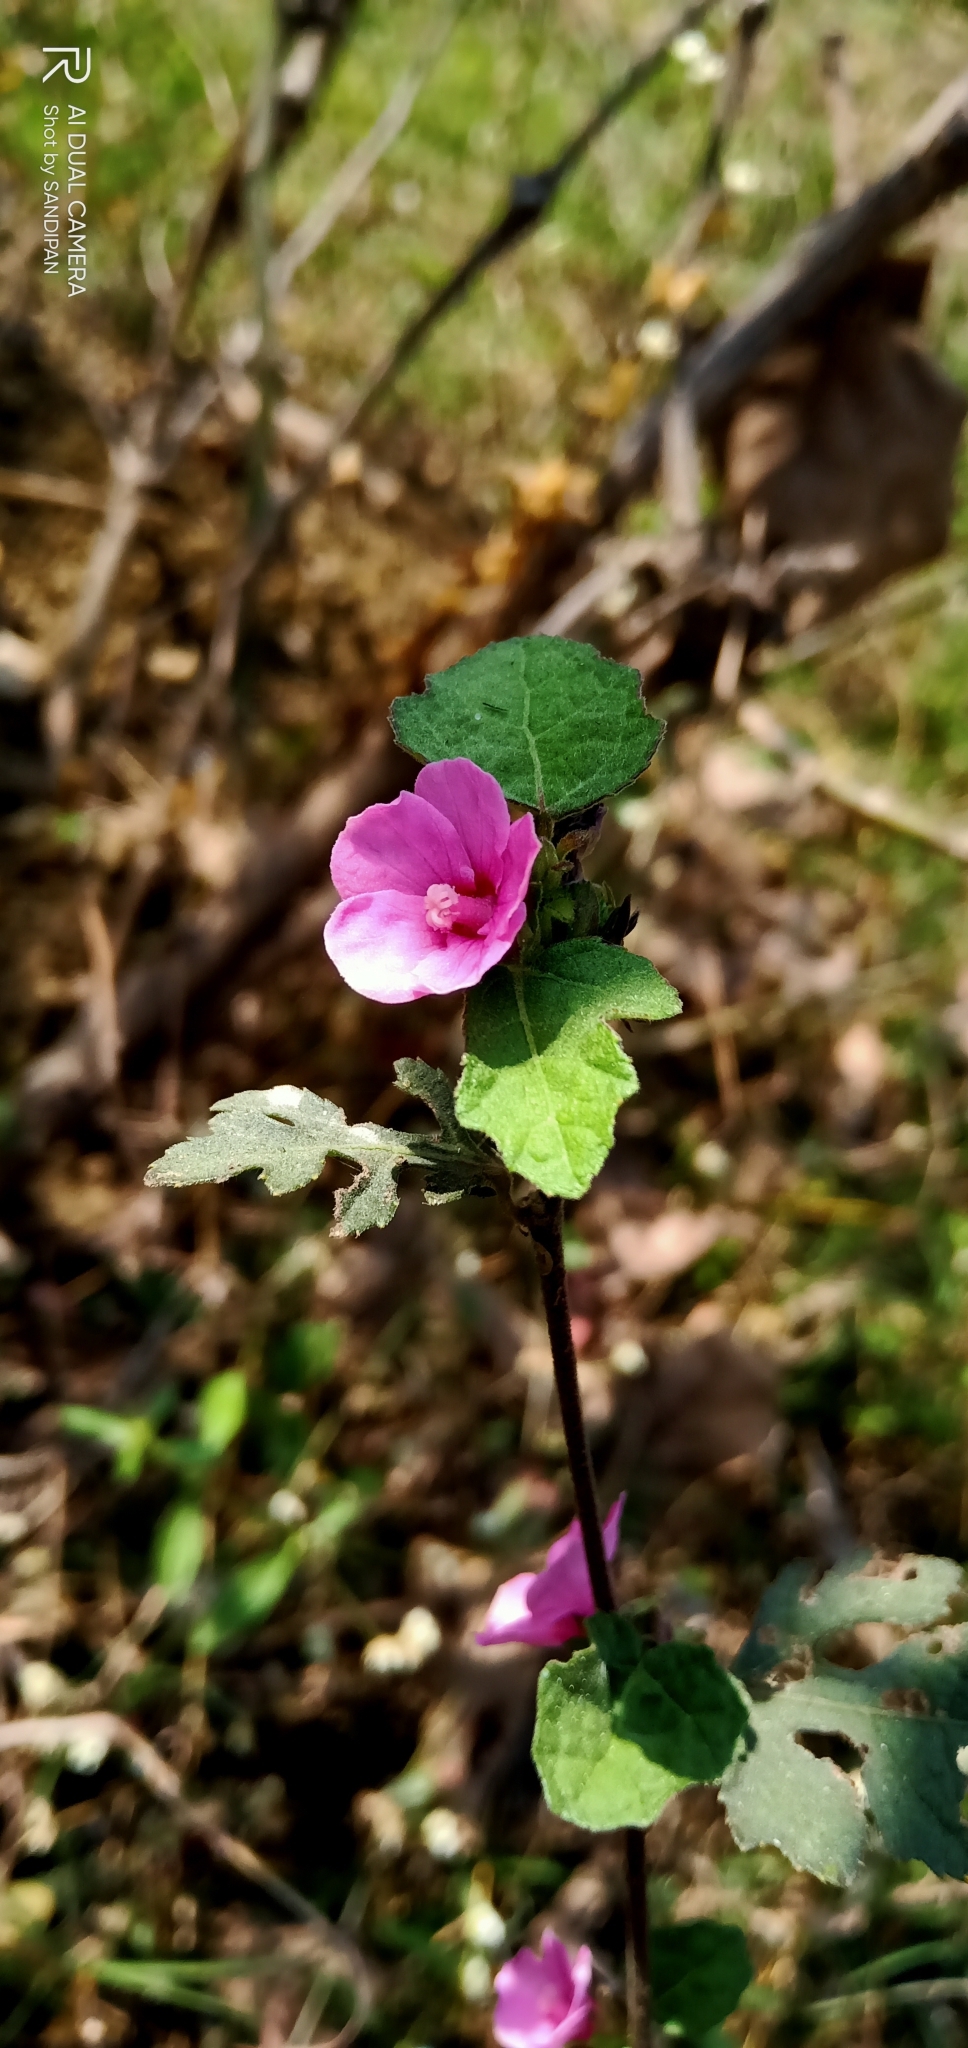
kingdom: Plantae
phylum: Tracheophyta
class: Magnoliopsida
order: Malvales
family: Malvaceae
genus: Urena
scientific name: Urena procumbens
